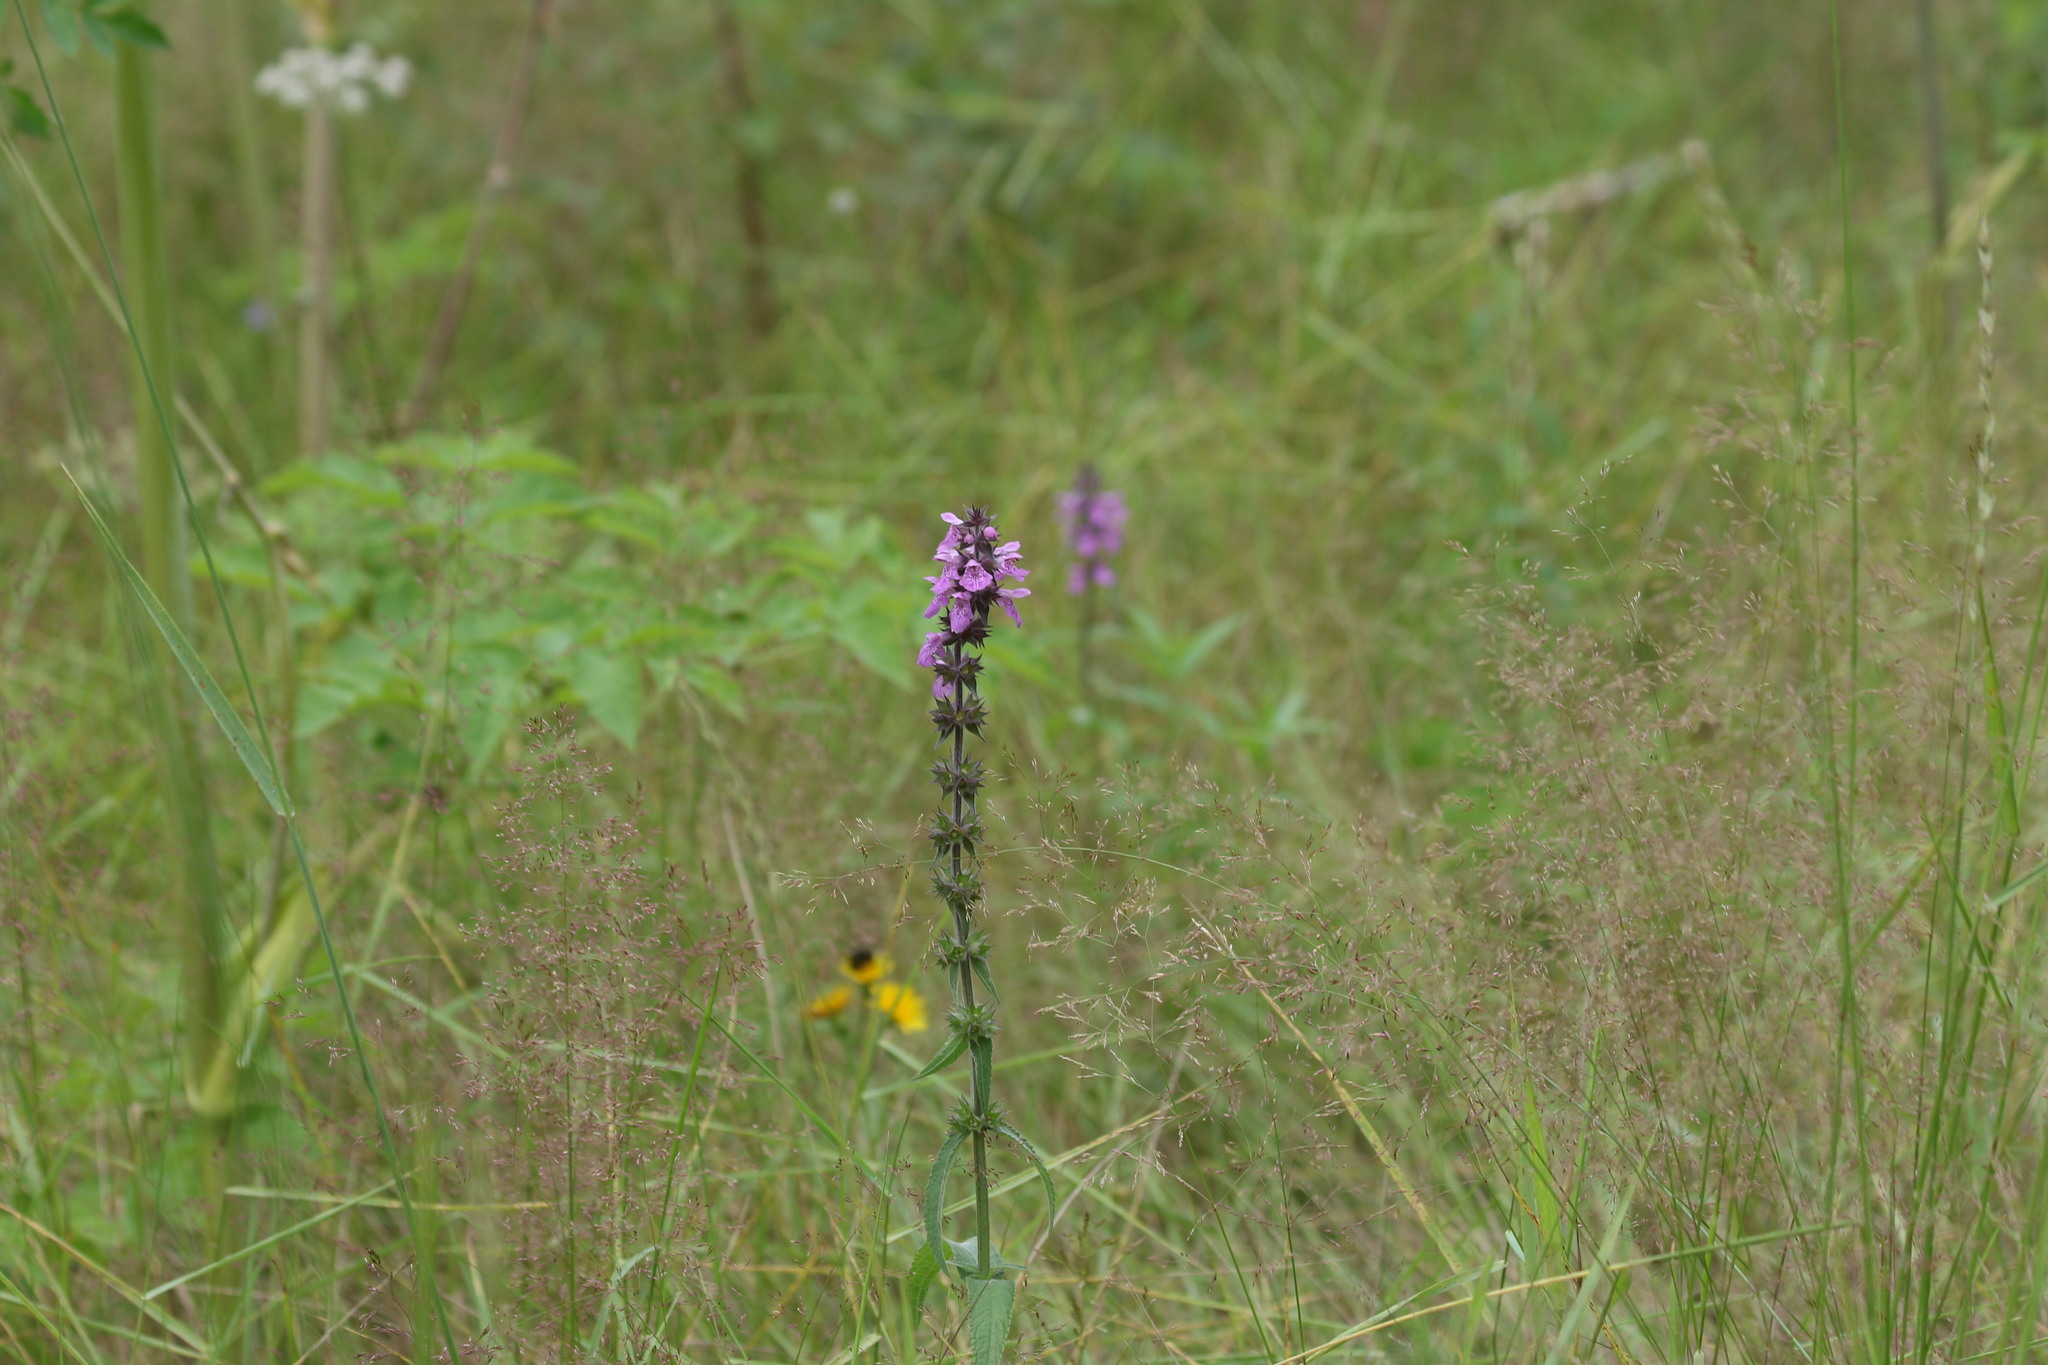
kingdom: Plantae
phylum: Tracheophyta
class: Magnoliopsida
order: Lamiales
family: Lamiaceae
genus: Stachys
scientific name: Stachys palustris
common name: Marsh woundwort
